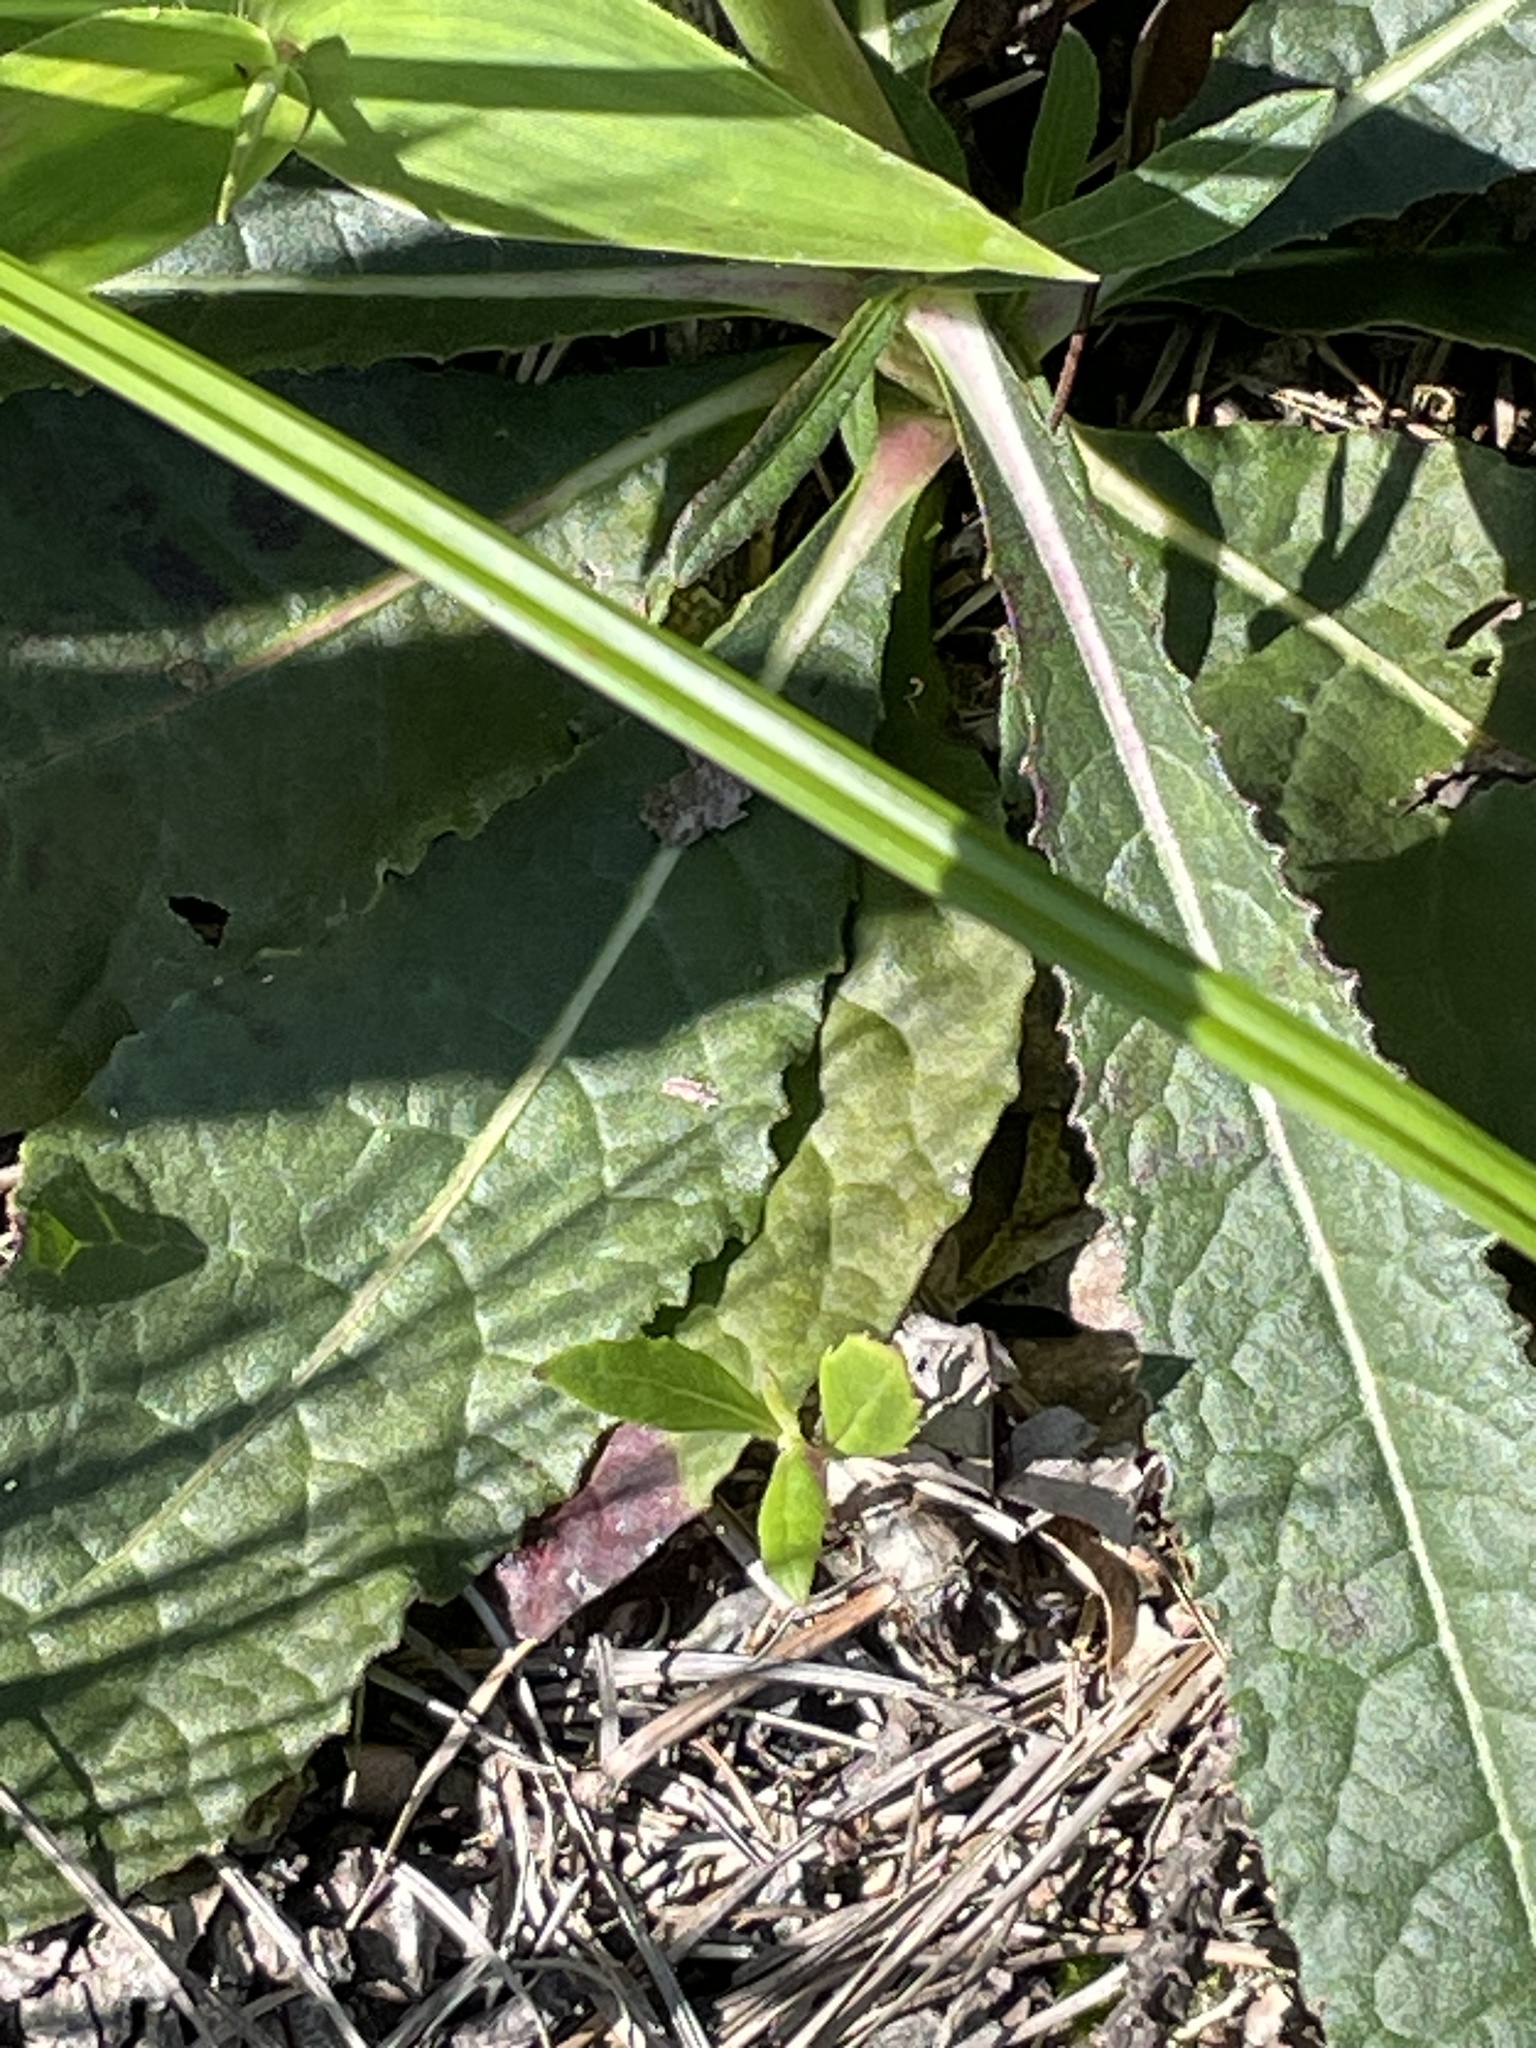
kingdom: Plantae
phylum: Tracheophyta
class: Magnoliopsida
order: Asterales
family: Asteraceae
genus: Vernonia
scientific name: Vernonia acaulis
